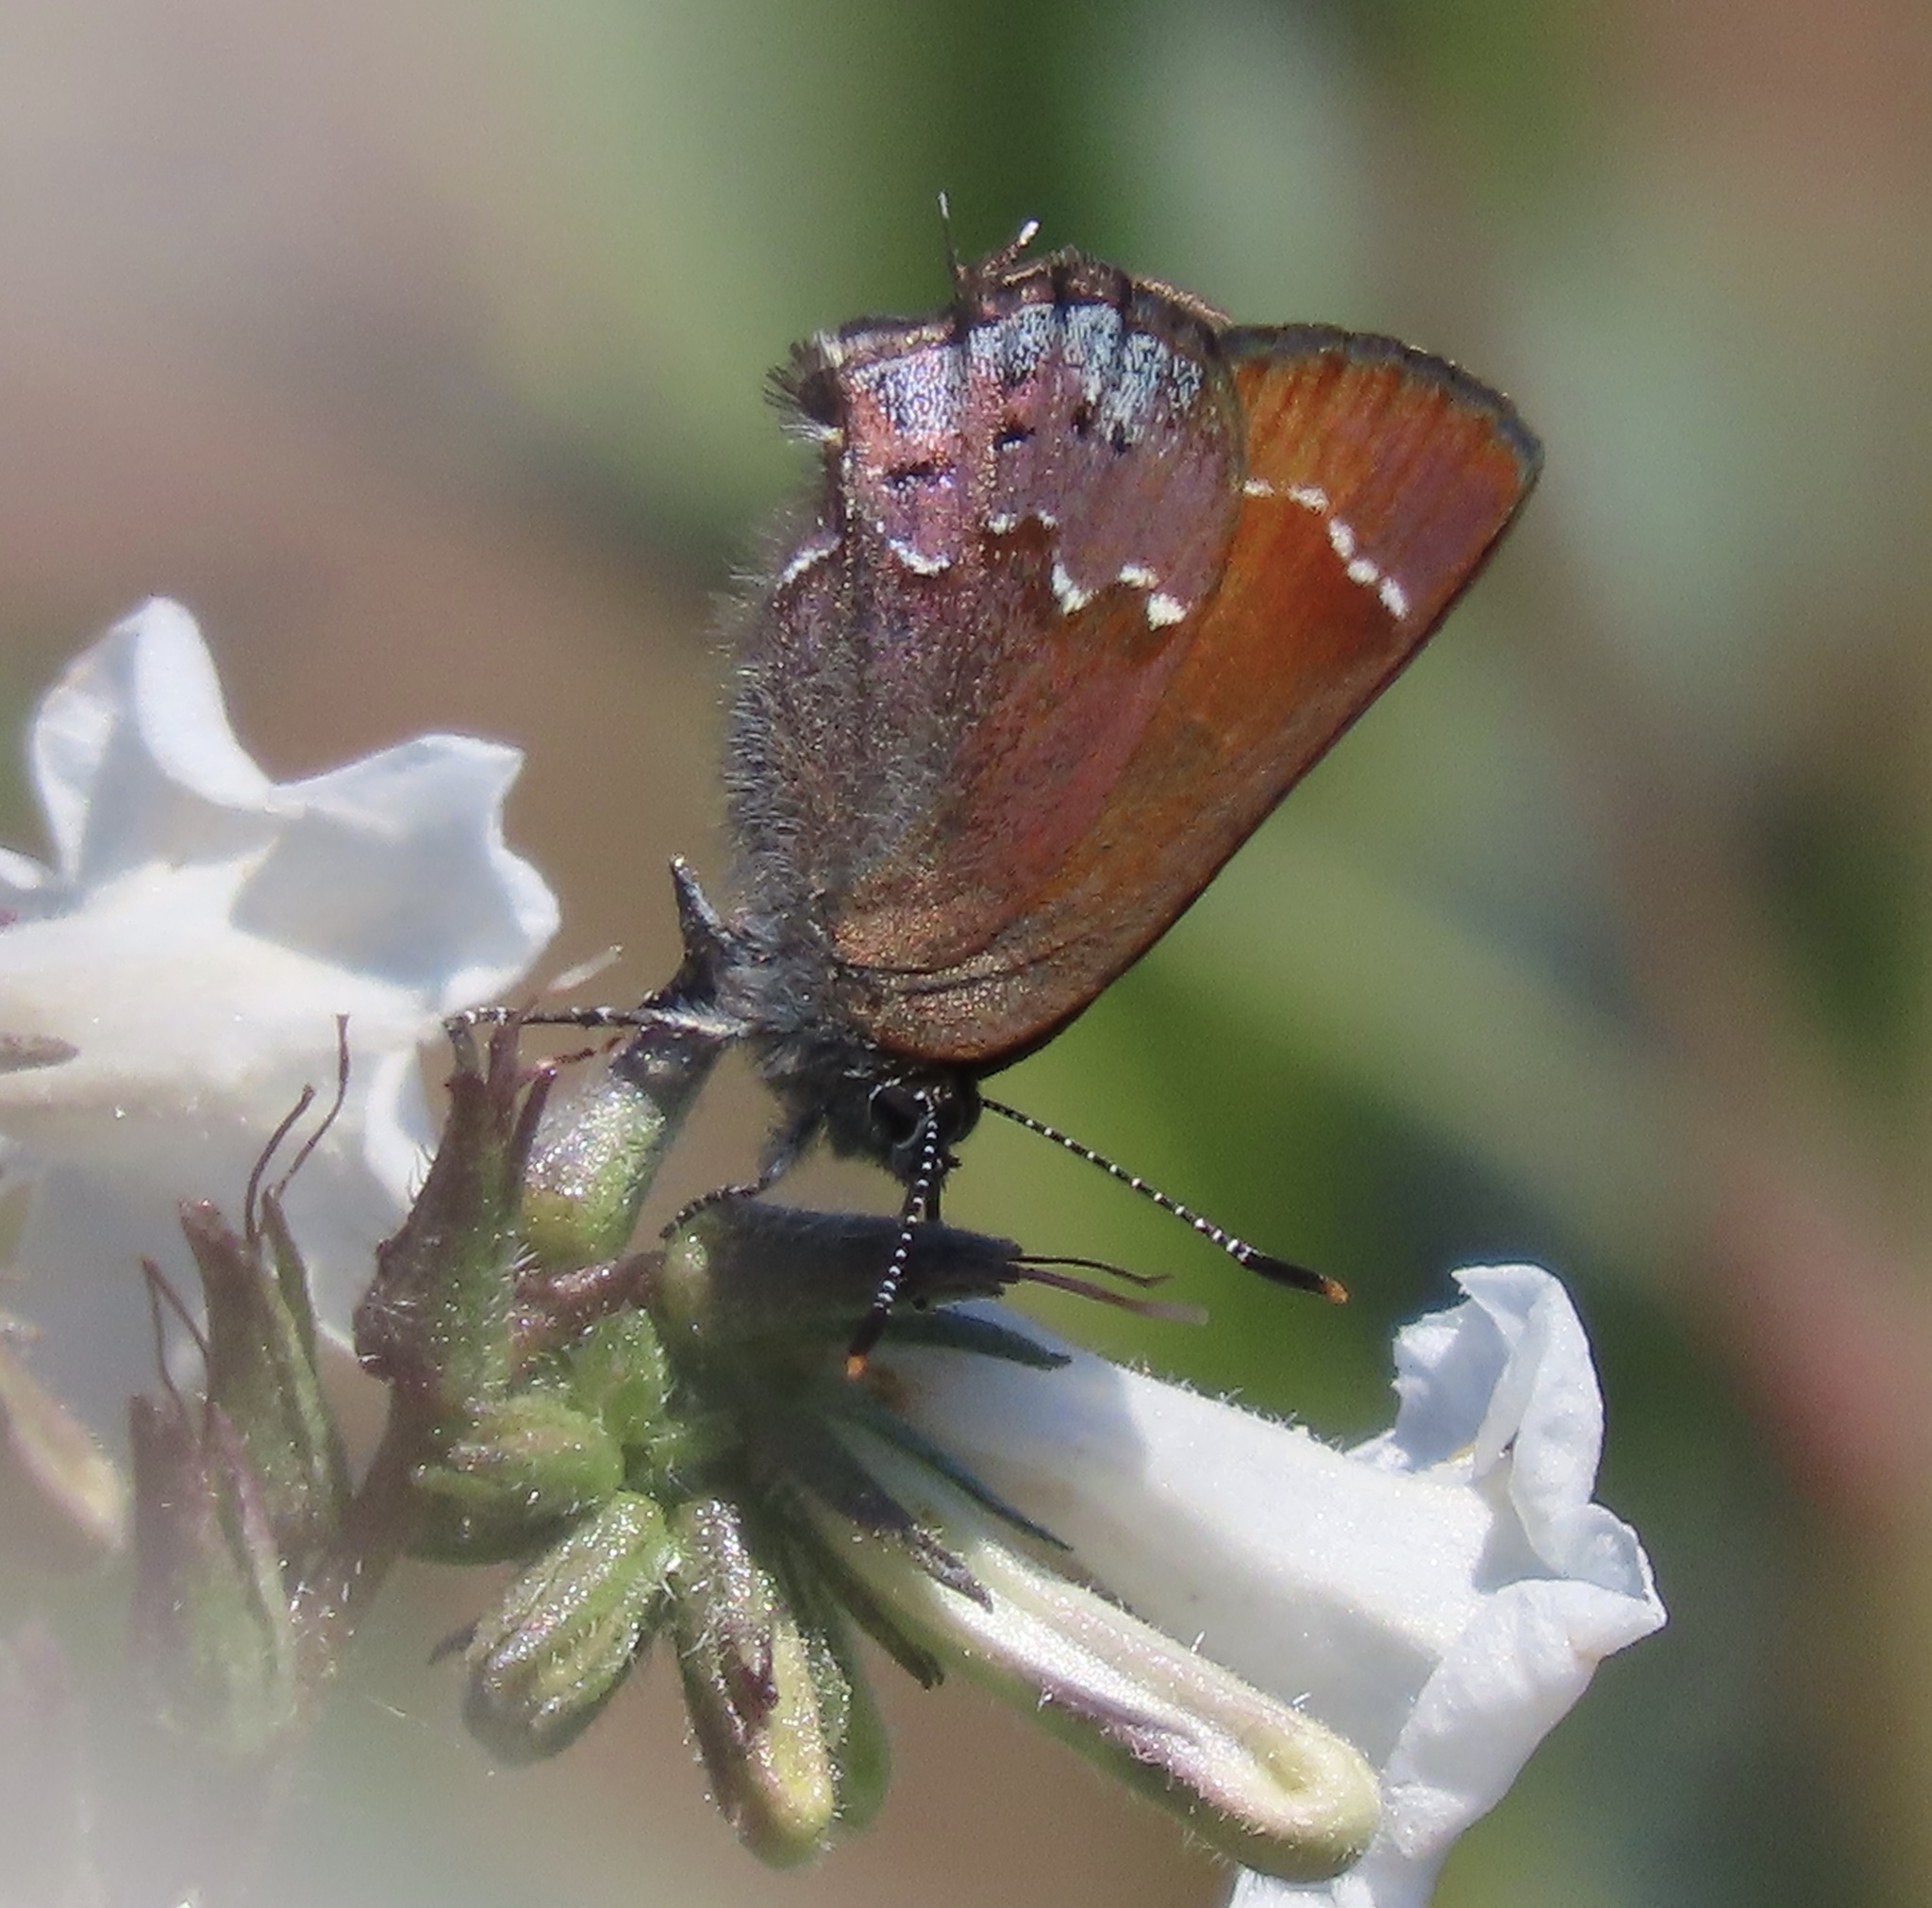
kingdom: Animalia
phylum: Arthropoda
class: Insecta
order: Lepidoptera
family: Lycaenidae
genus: Callophrys
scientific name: Callophrys muiri
